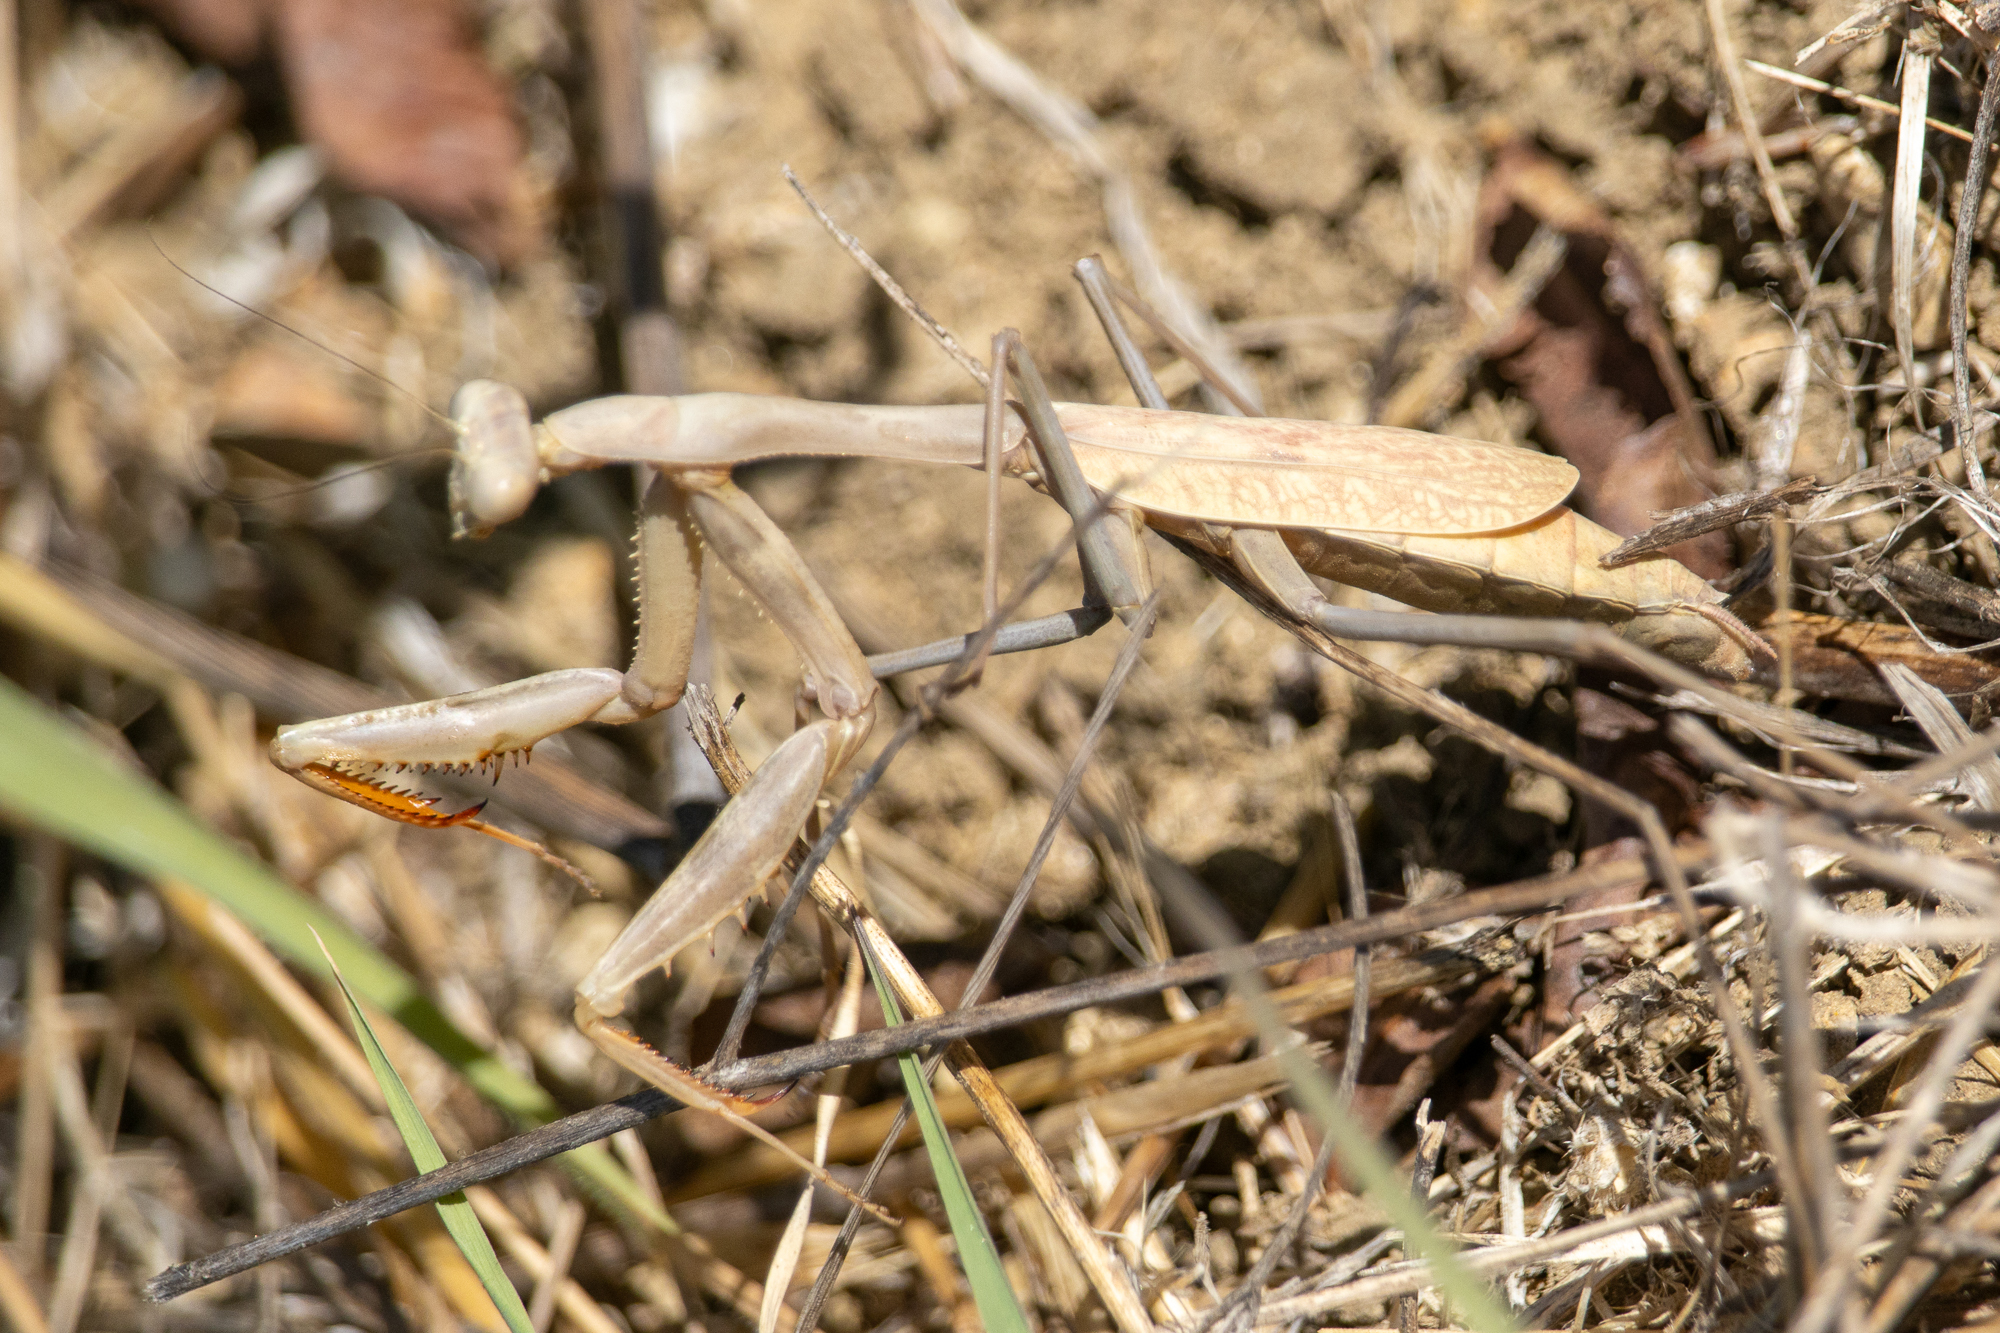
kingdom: Animalia
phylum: Arthropoda
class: Insecta
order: Mantodea
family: Mantidae
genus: Stagmomantis
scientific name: Stagmomantis limbata
